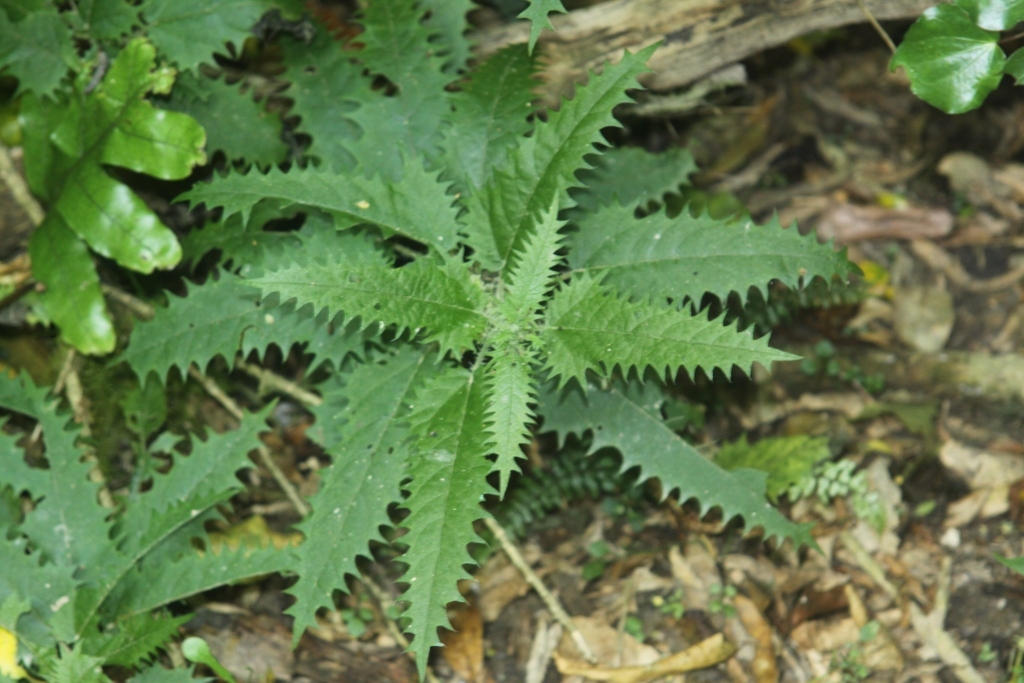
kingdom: Plantae
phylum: Tracheophyta
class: Magnoliopsida
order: Rosales
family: Urticaceae
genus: Urtica
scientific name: Urtica ferox
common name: Tree nettle
